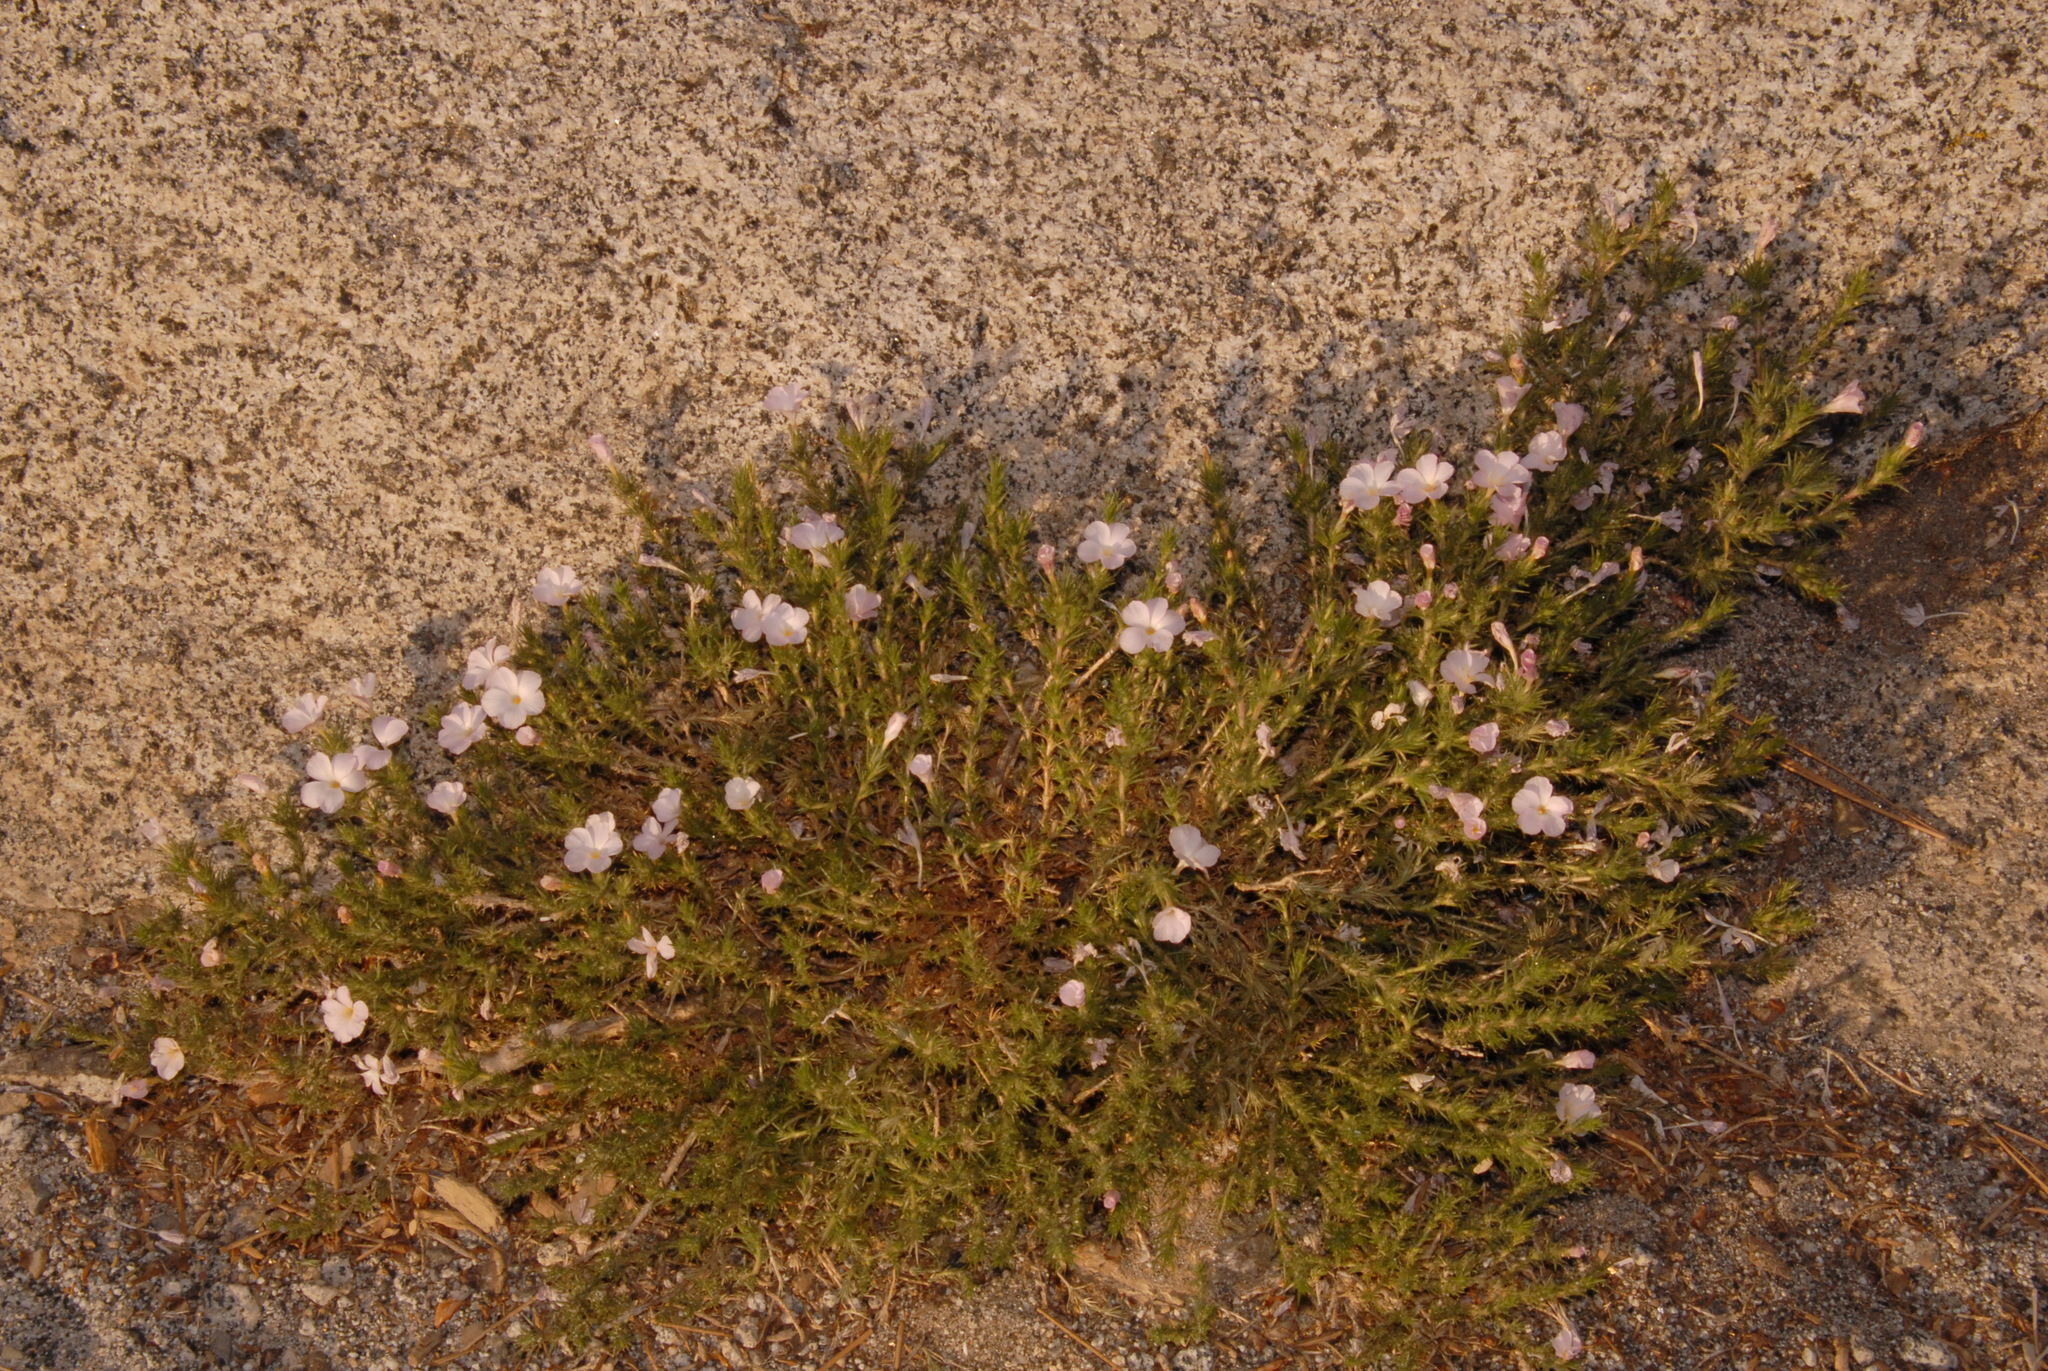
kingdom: Plantae
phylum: Tracheophyta
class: Magnoliopsida
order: Ericales
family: Polemoniaceae
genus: Linanthus
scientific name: Linanthus pungens
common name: Granite prickly phlox
